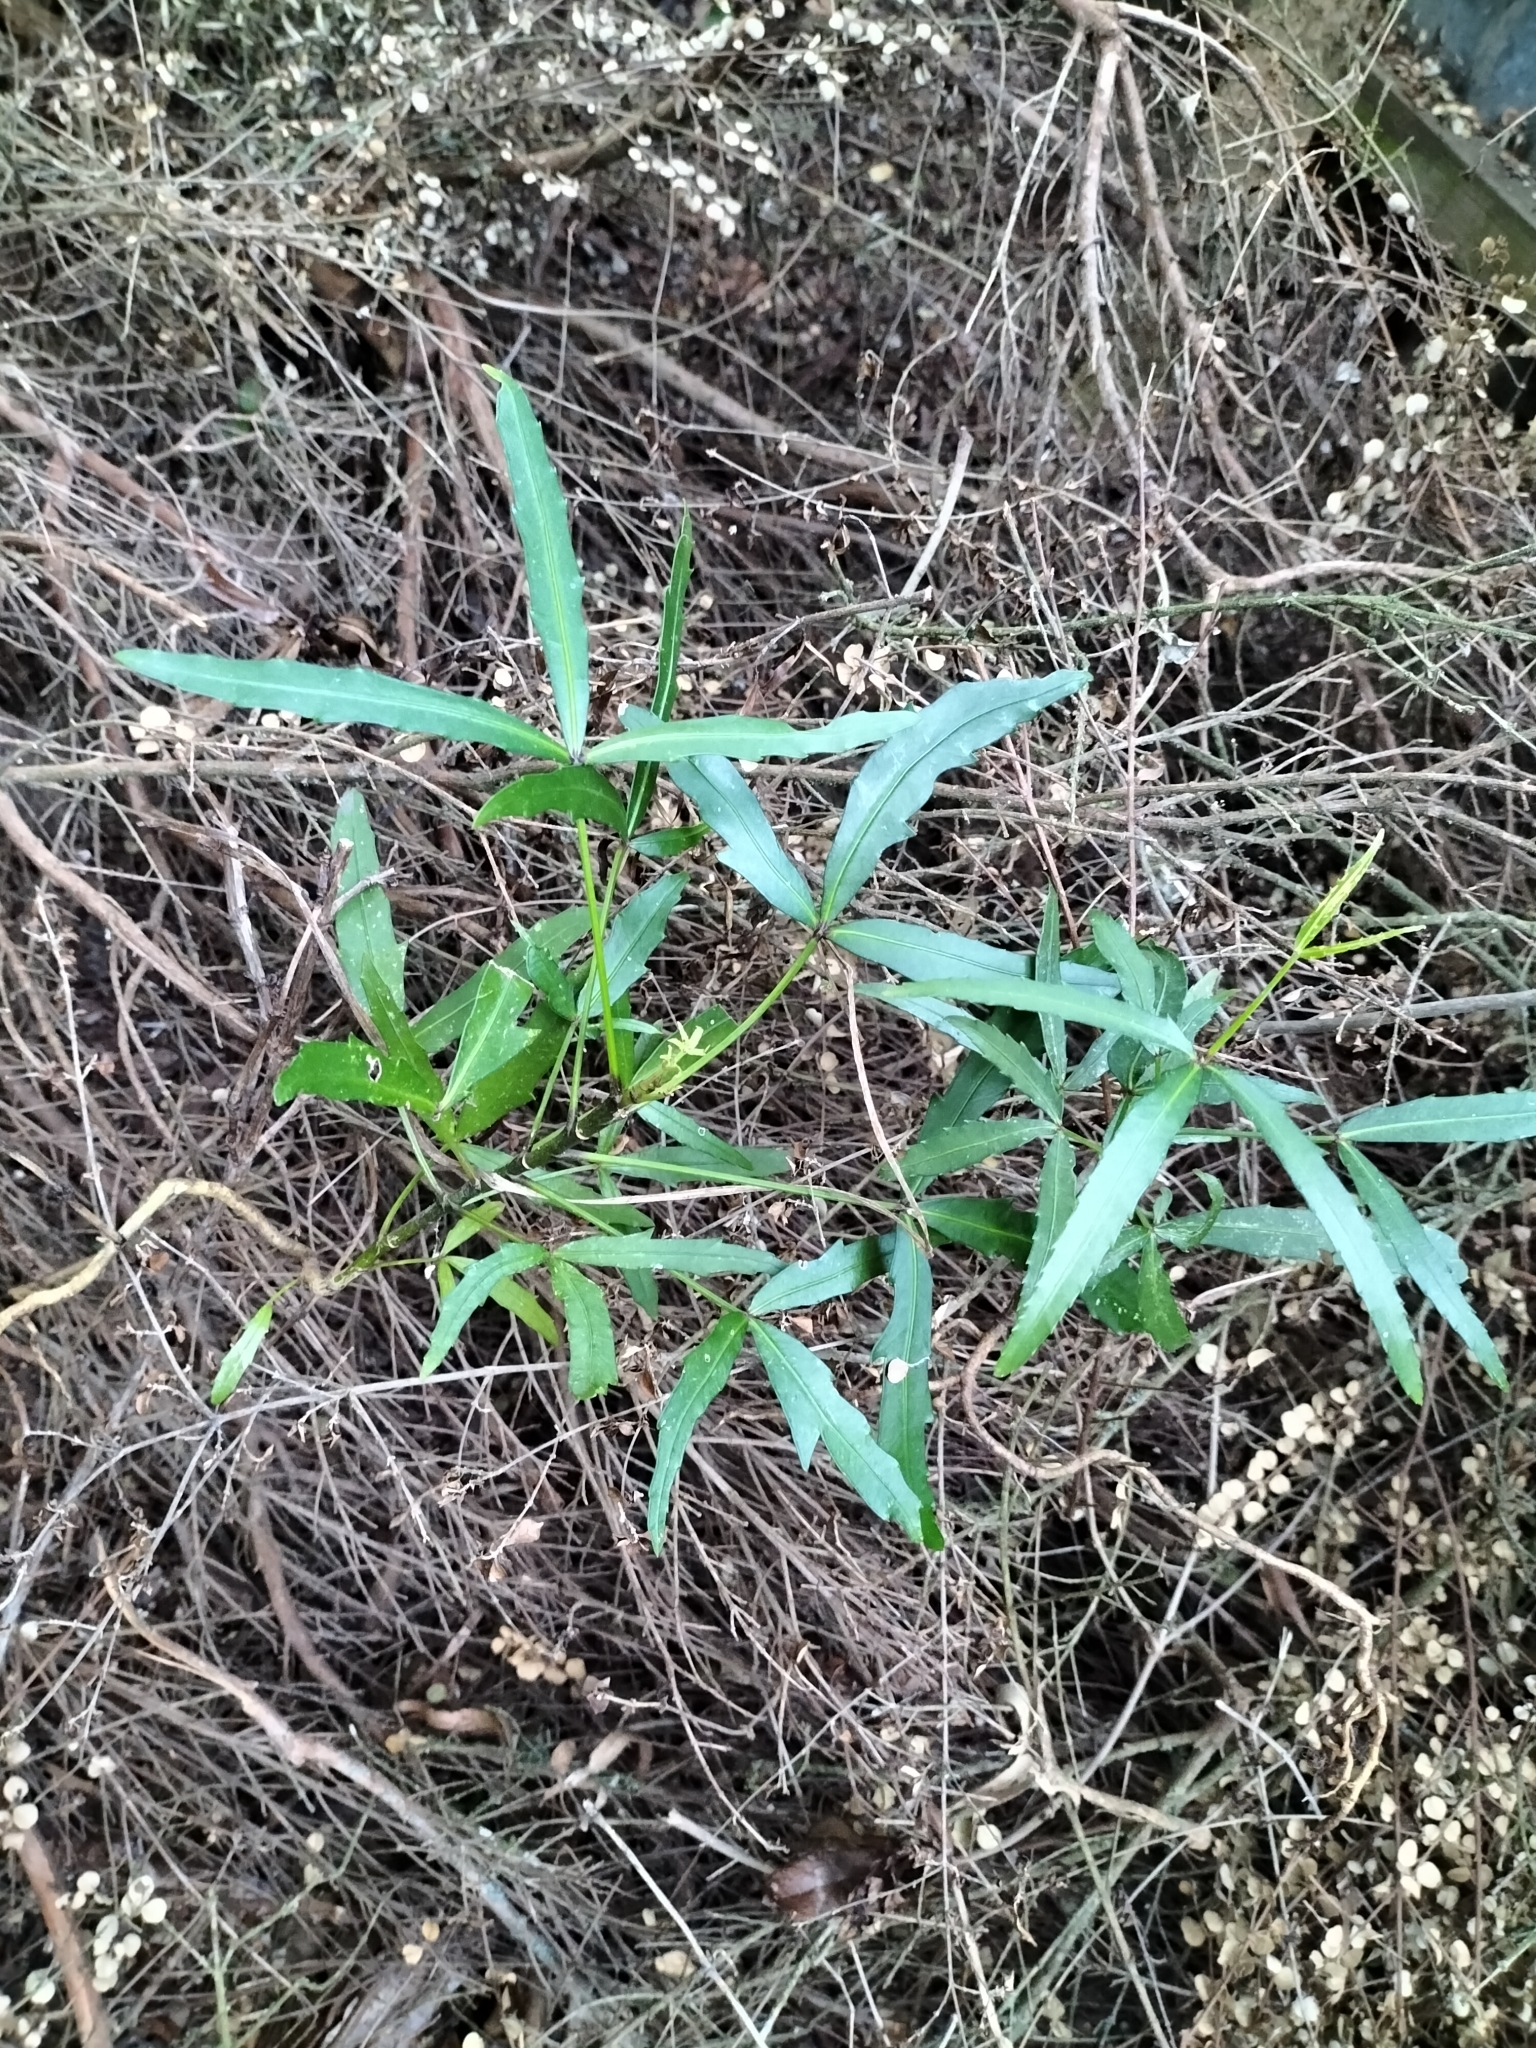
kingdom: Plantae
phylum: Tracheophyta
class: Magnoliopsida
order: Apiales
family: Araliaceae
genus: Pseudopanax
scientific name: Pseudopanax
